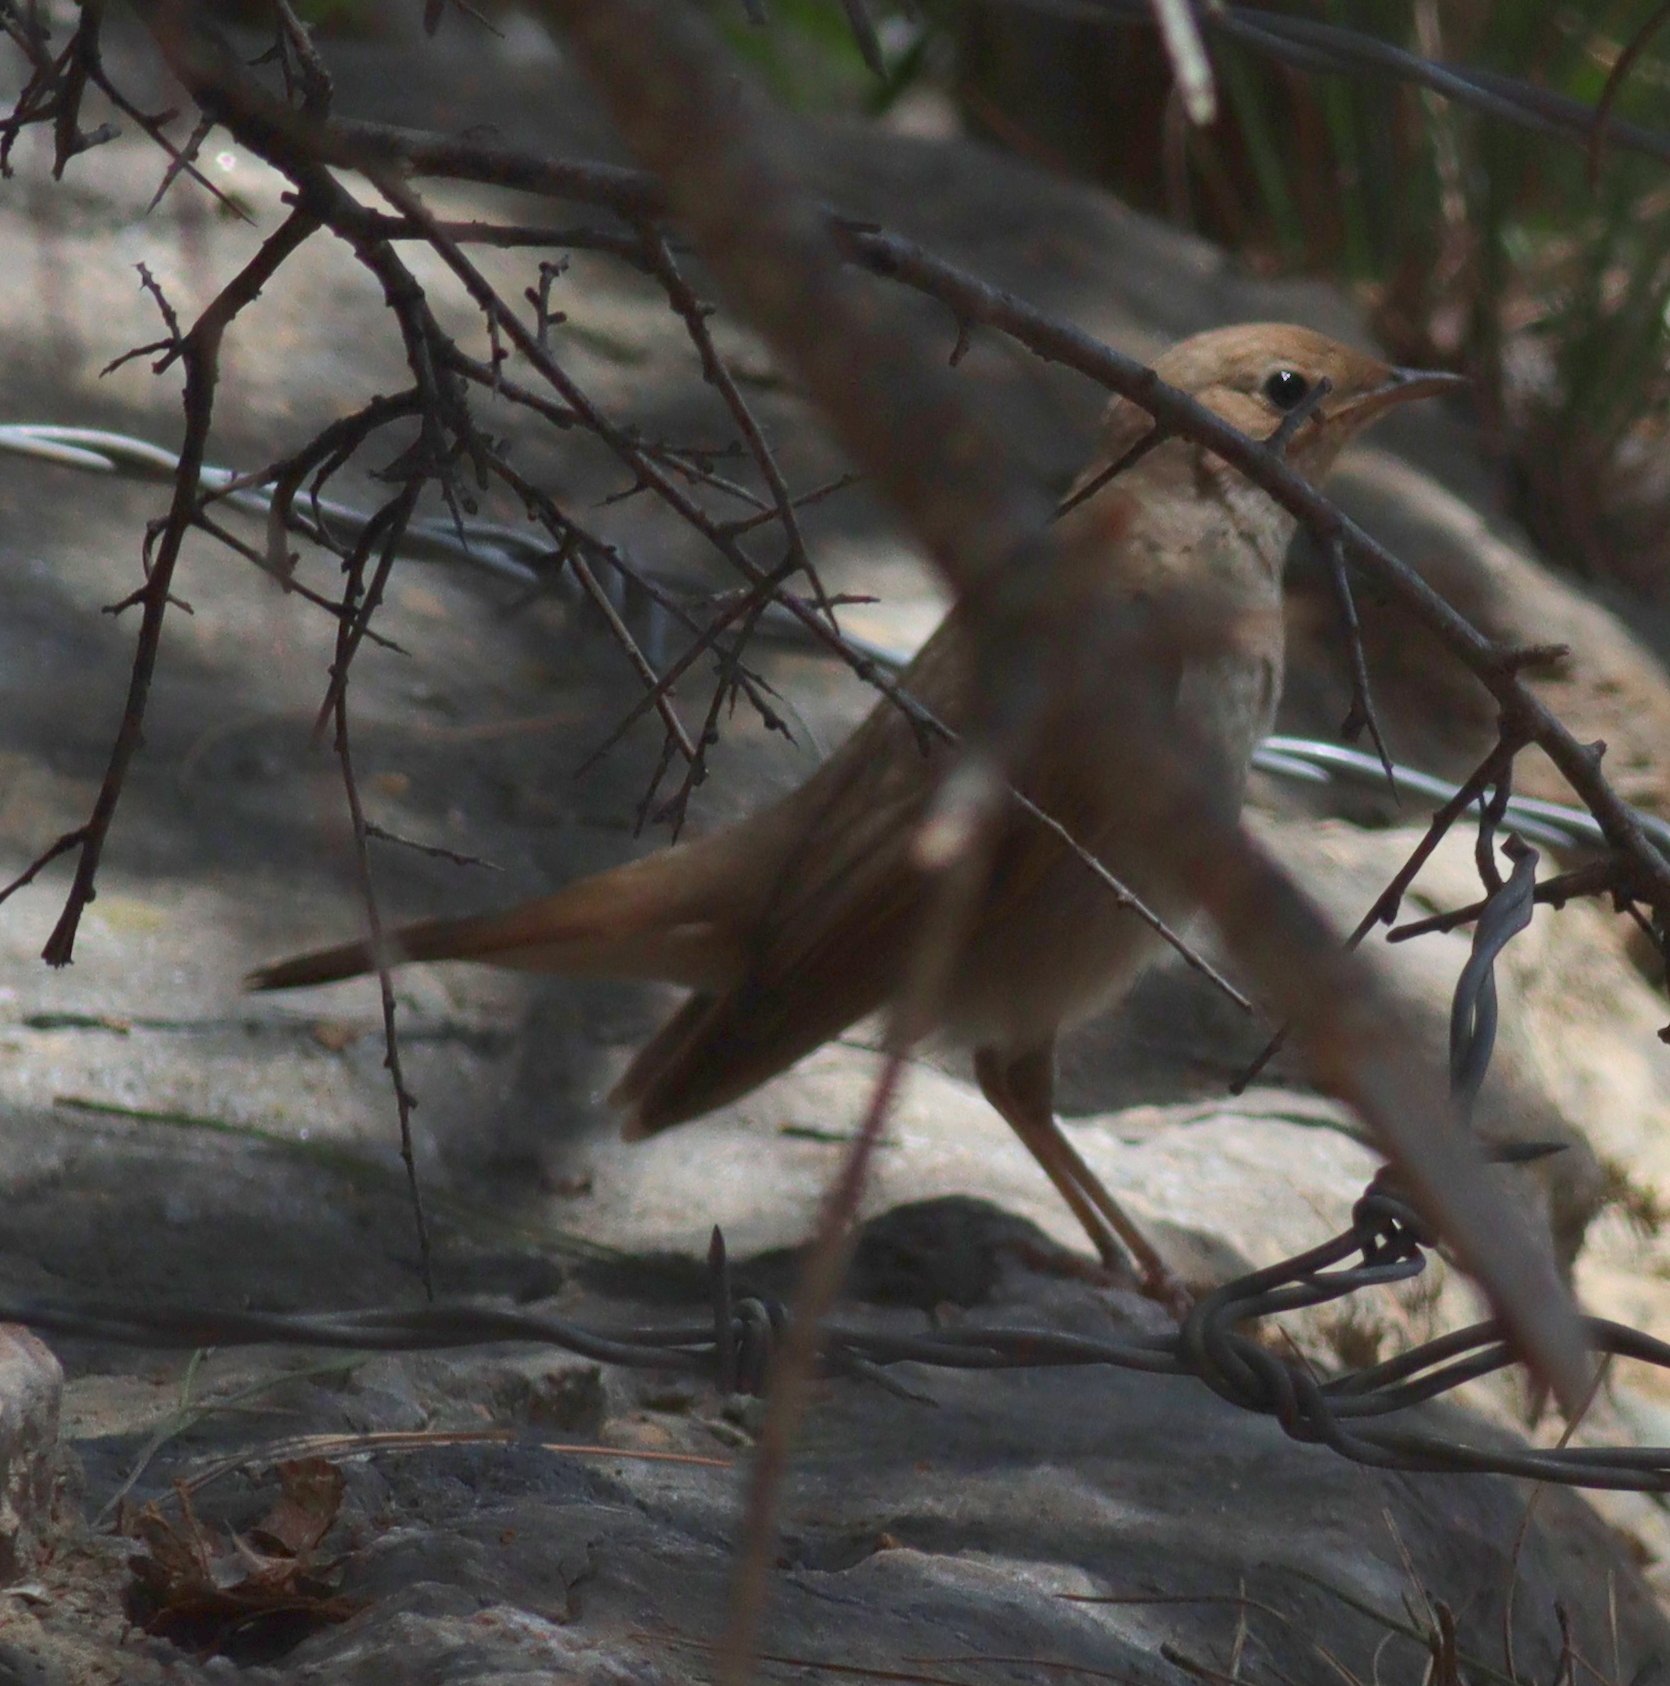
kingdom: Animalia
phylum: Chordata
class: Aves
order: Passeriformes
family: Muscicapidae
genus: Luscinia
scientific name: Luscinia megarhynchos
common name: Common nightingale
